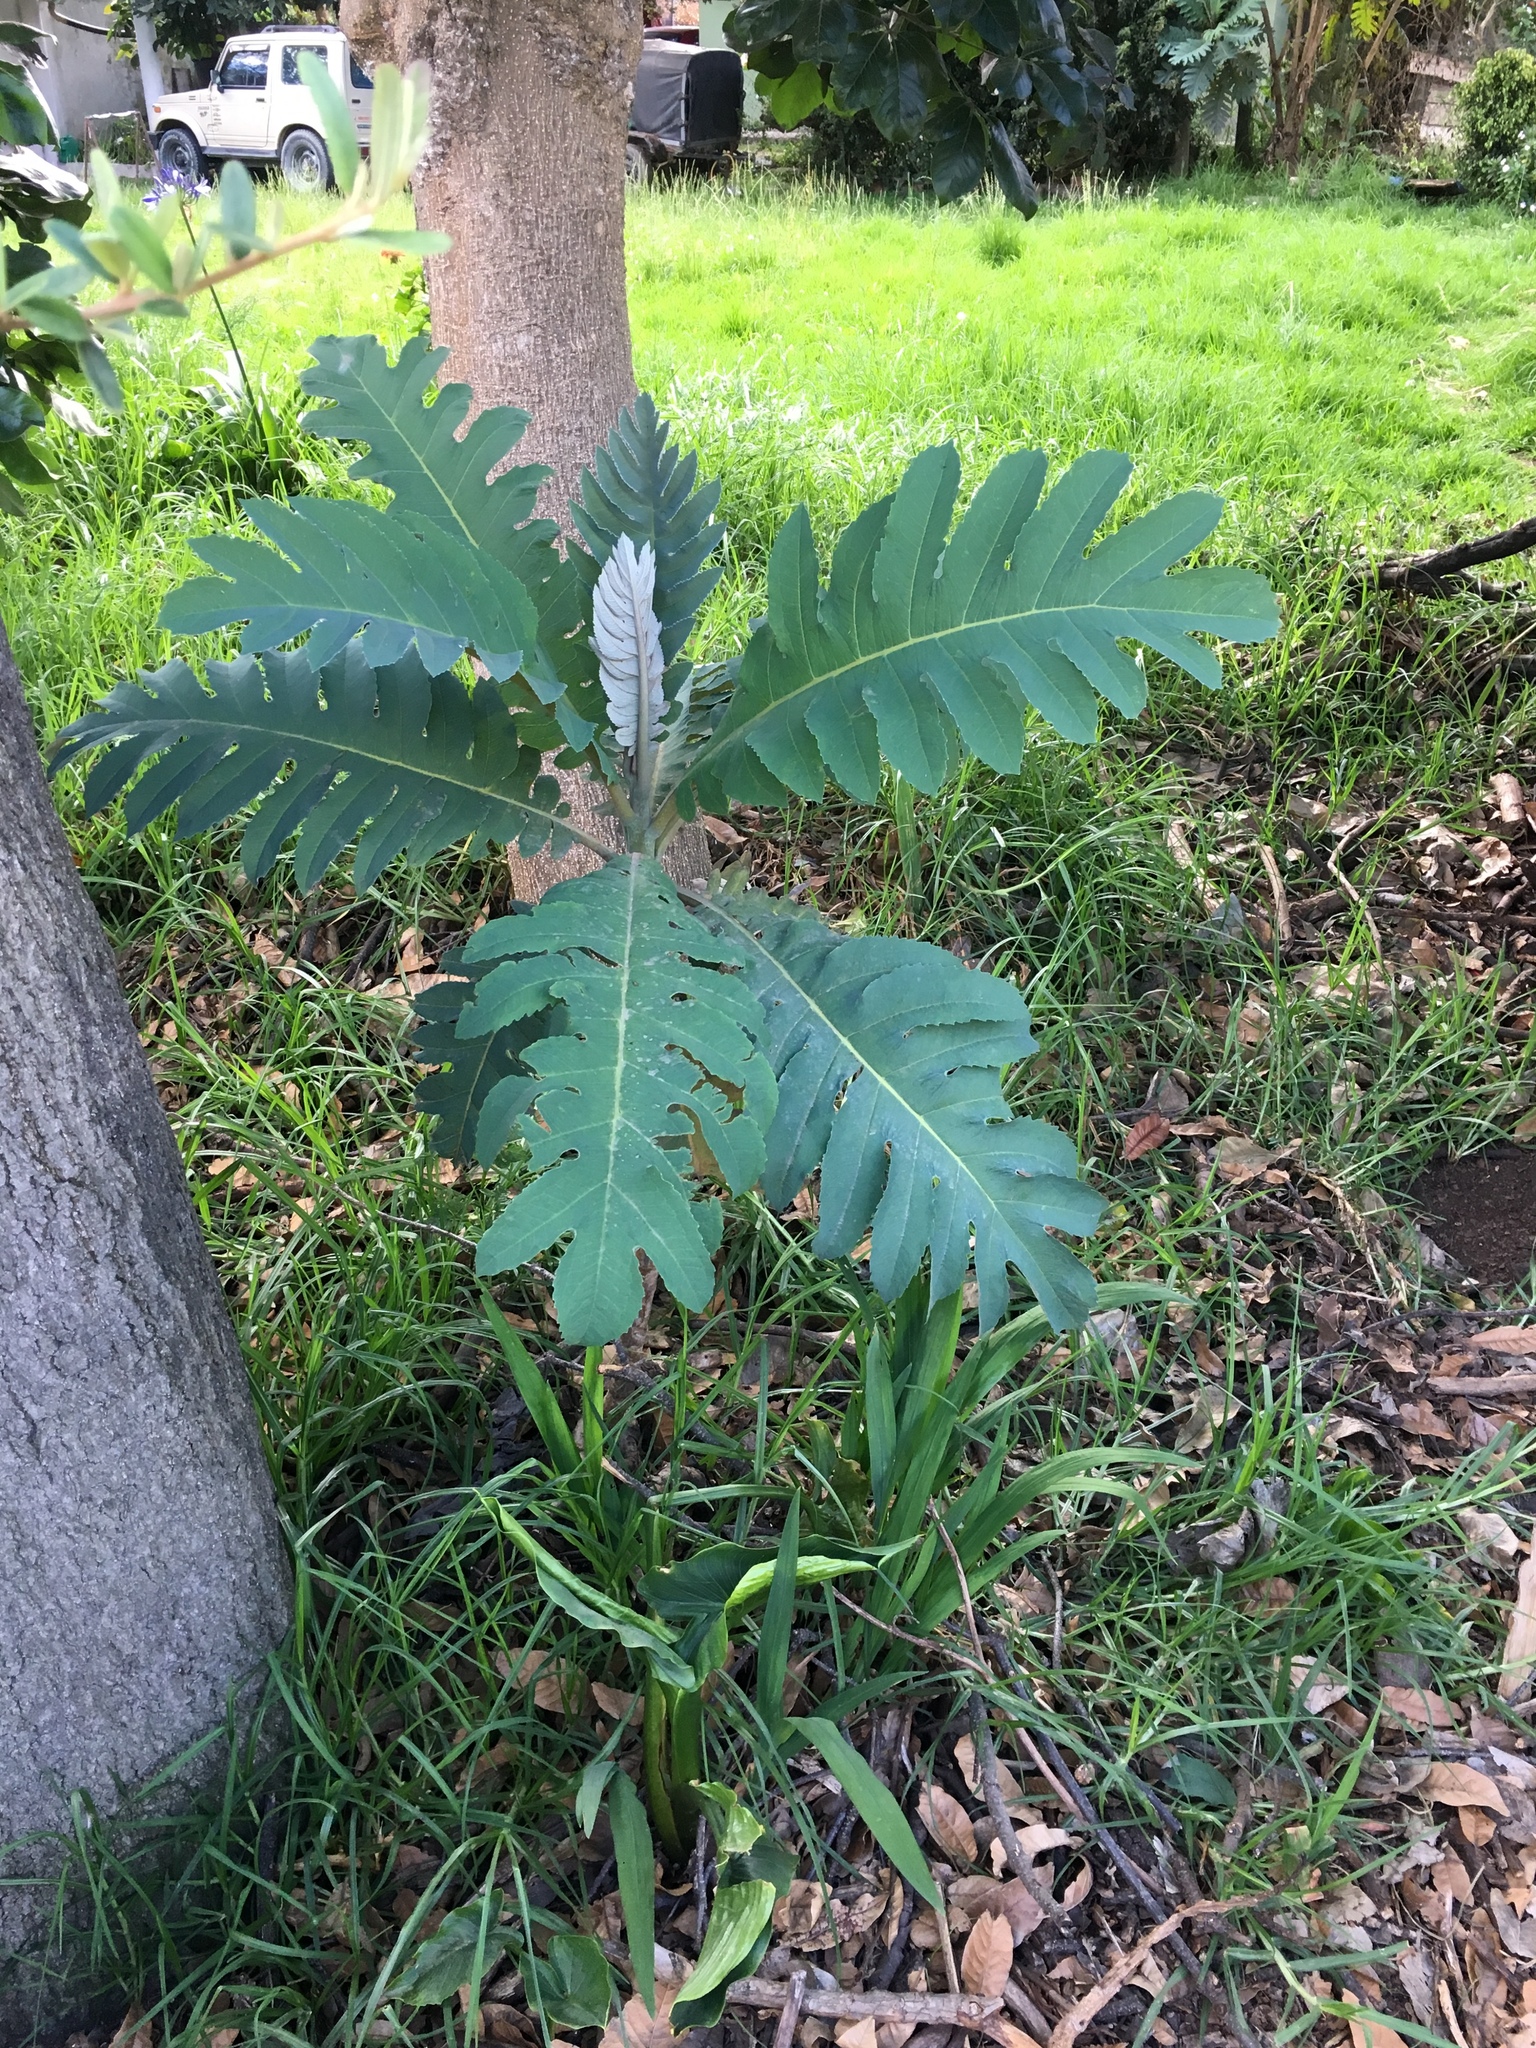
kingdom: Plantae
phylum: Tracheophyta
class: Magnoliopsida
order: Ranunculales
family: Papaveraceae
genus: Bocconia
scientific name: Bocconia frutescens
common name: Tree poppy
